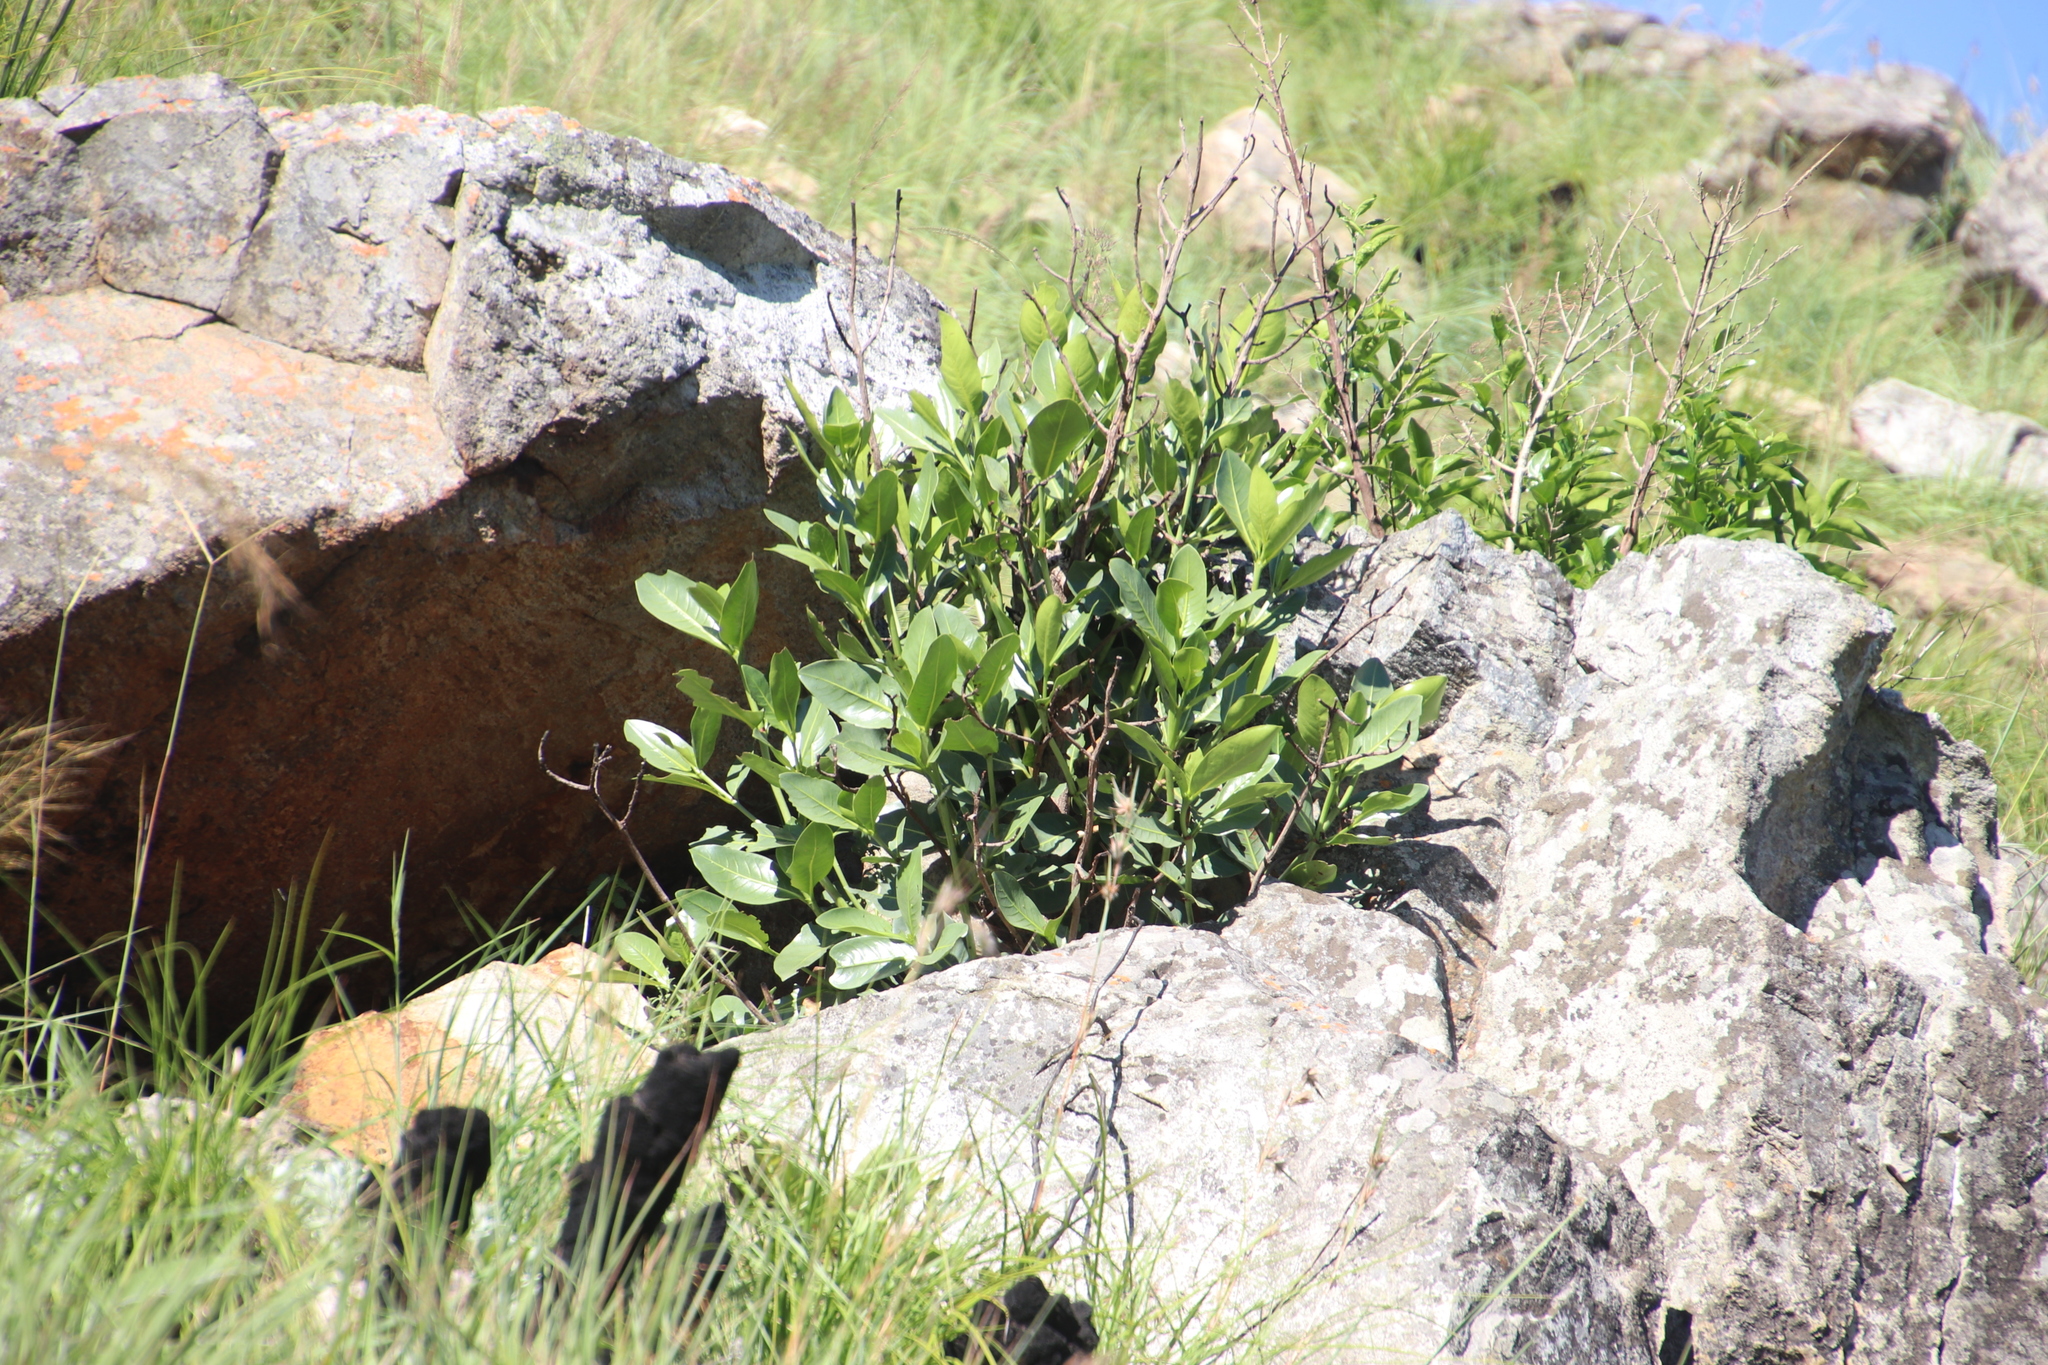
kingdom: Plantae
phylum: Tracheophyta
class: Magnoliopsida
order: Gentianales
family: Rubiaceae
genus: Psychotria
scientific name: Psychotria
